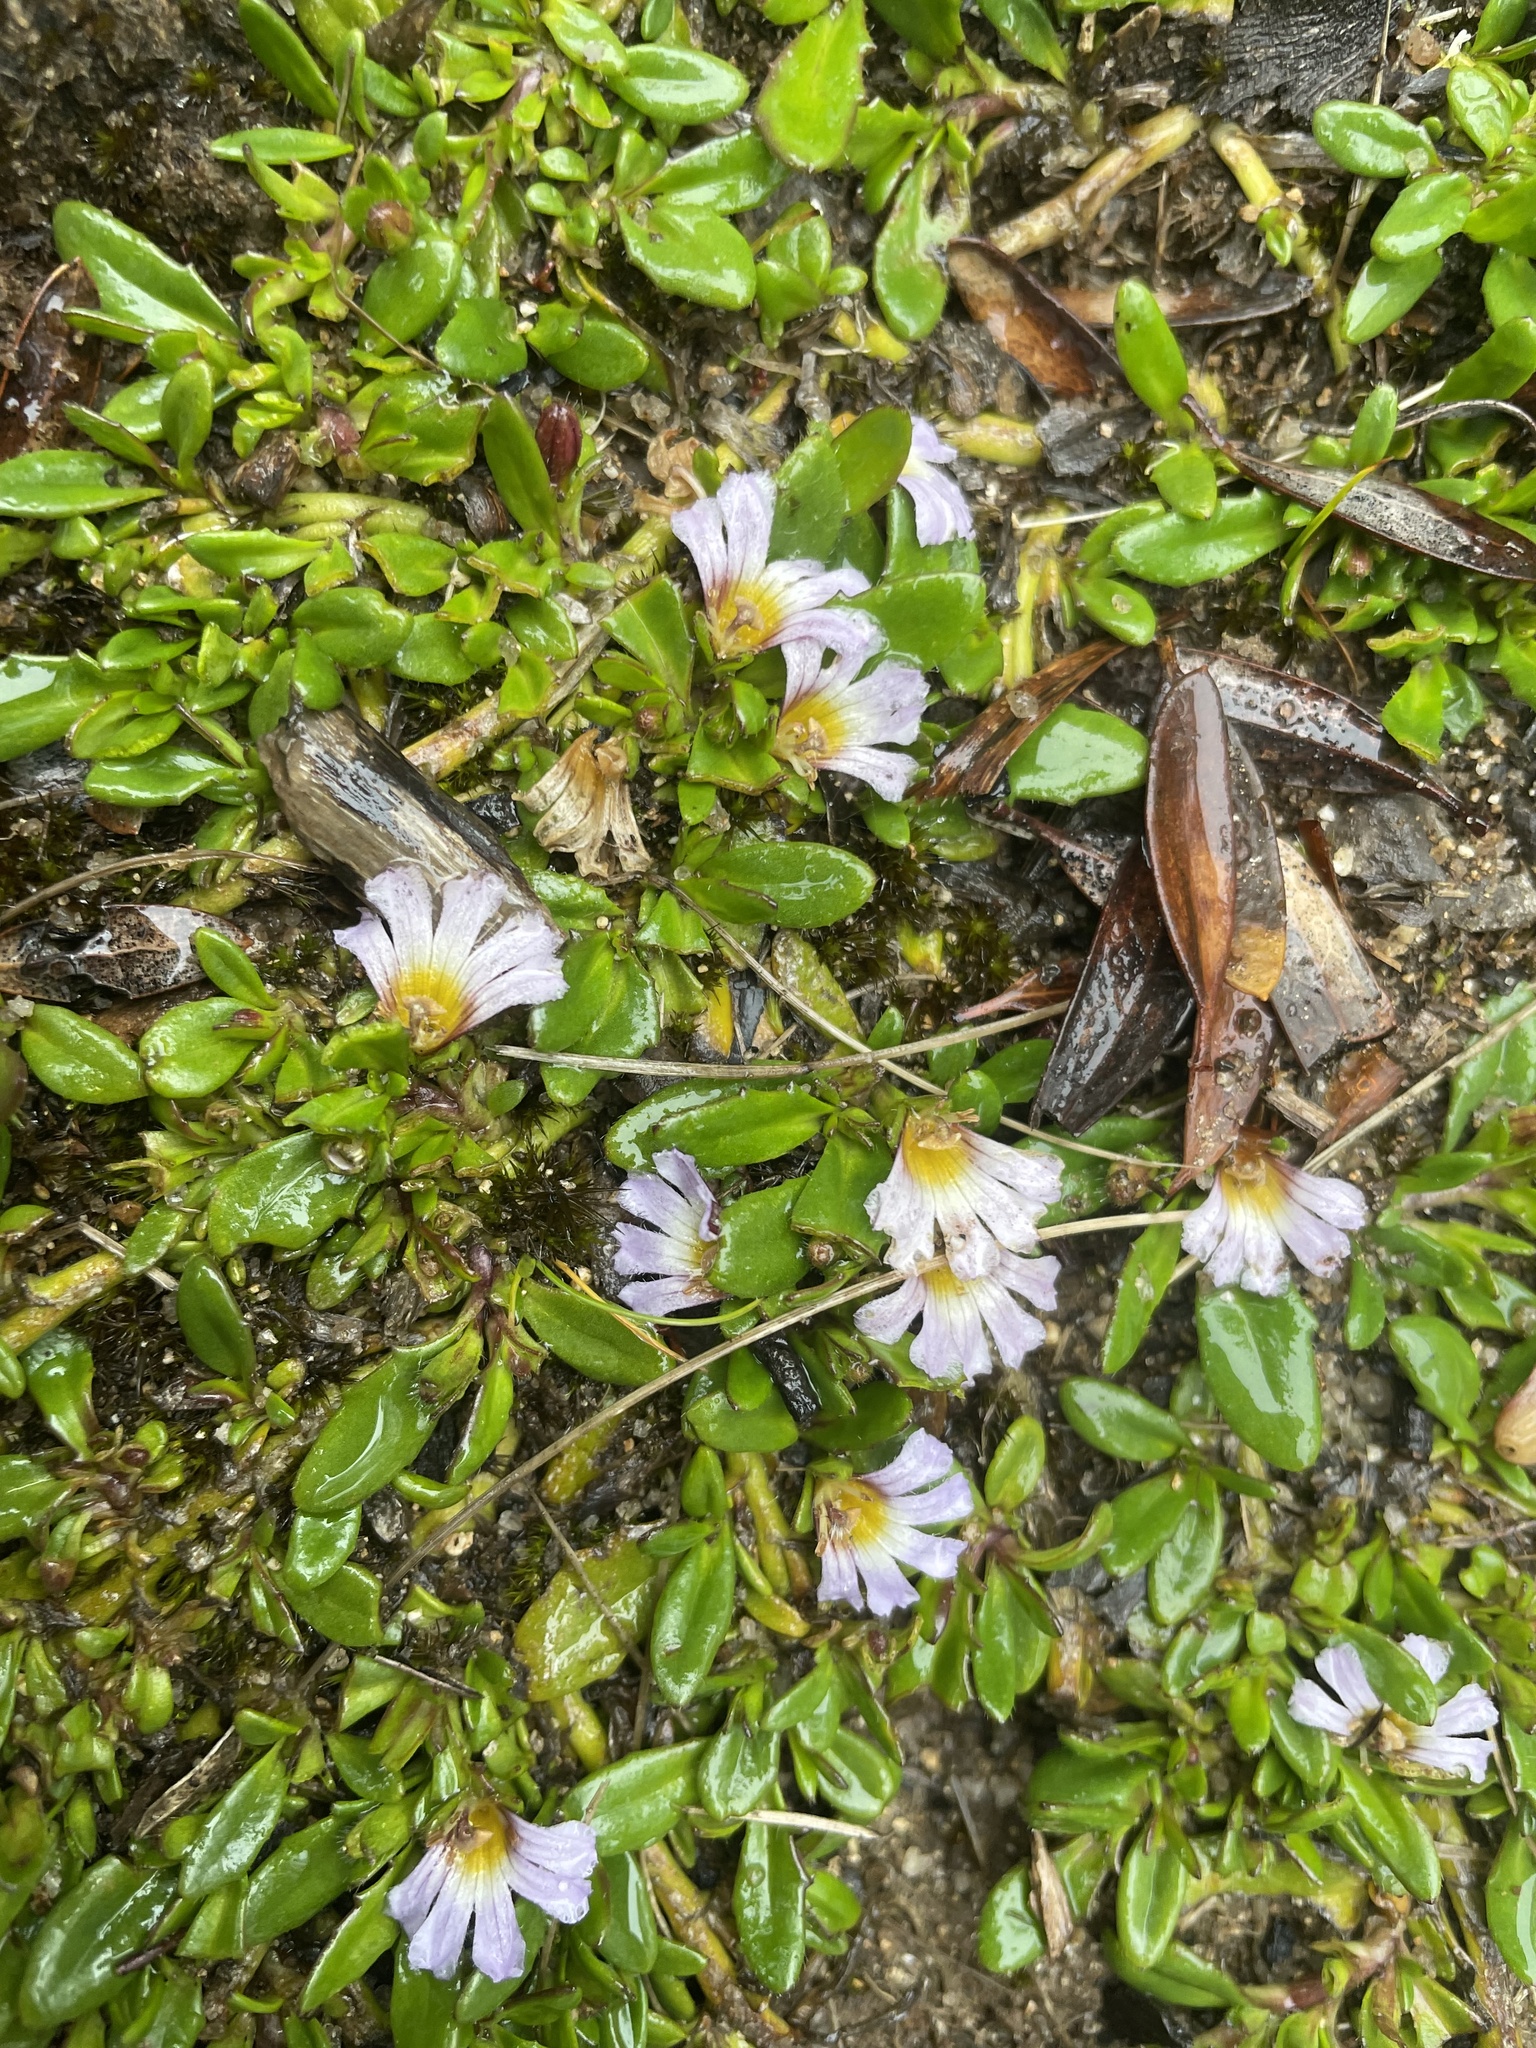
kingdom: Plantae
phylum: Tracheophyta
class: Magnoliopsida
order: Asterales
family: Goodeniaceae
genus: Scaevola
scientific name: Scaevola hookeri
